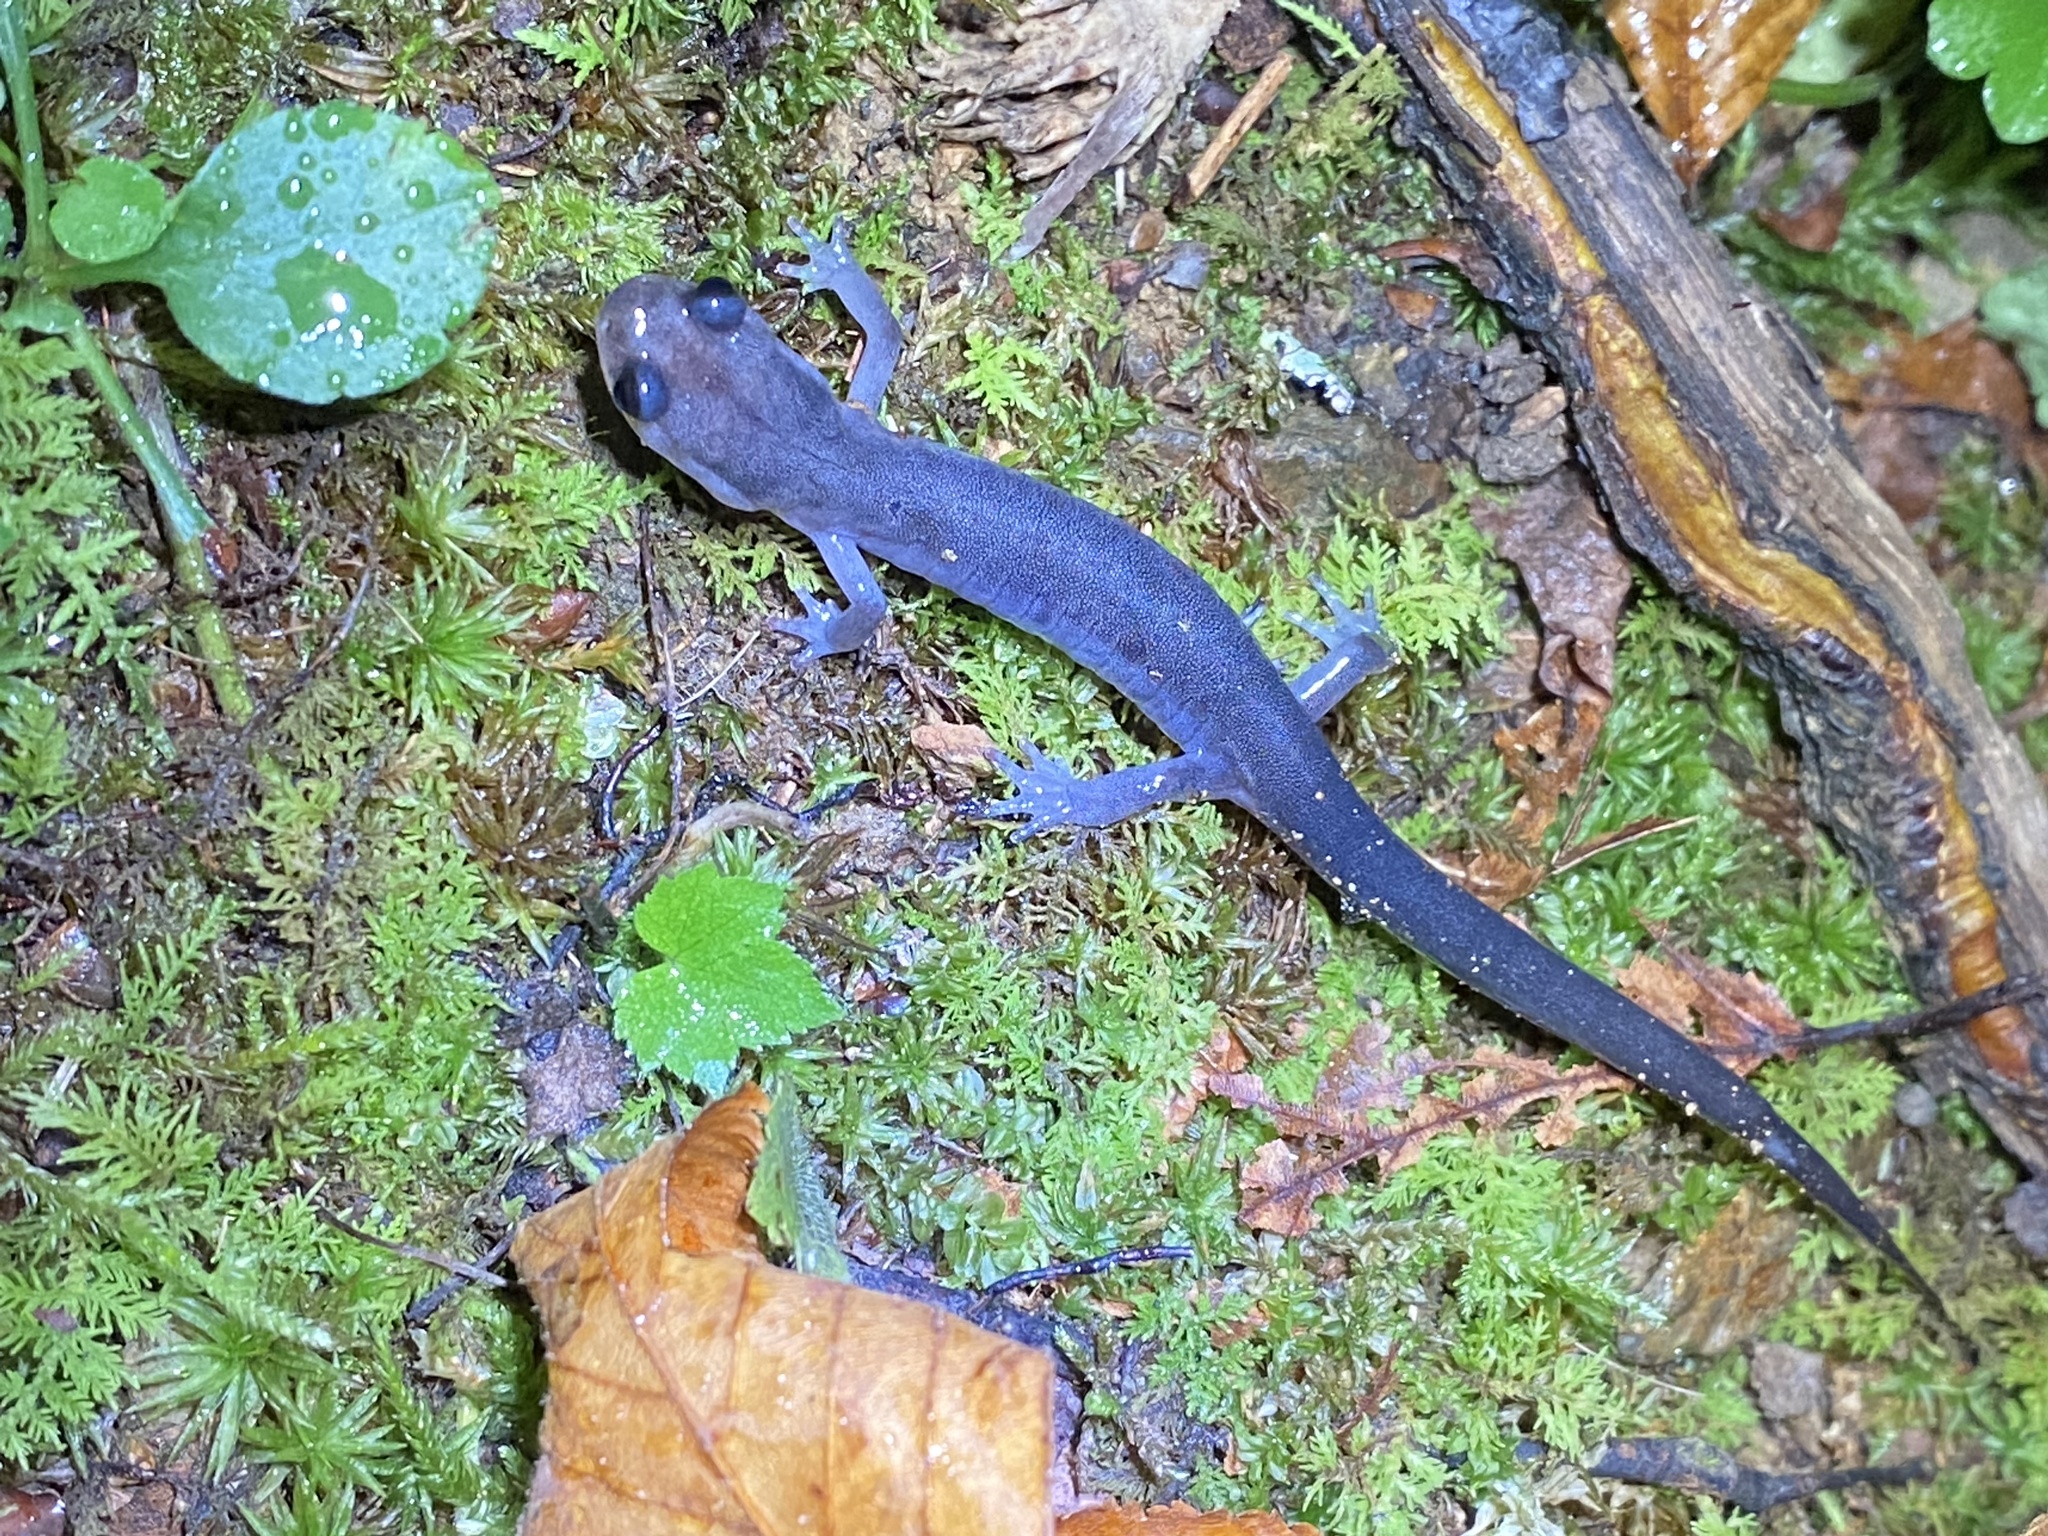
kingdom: Animalia
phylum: Chordata
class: Amphibia
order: Caudata
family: Plethodontidae
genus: Plethodon
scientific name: Plethodon montanus
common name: Northern gray-cheeked salamander
